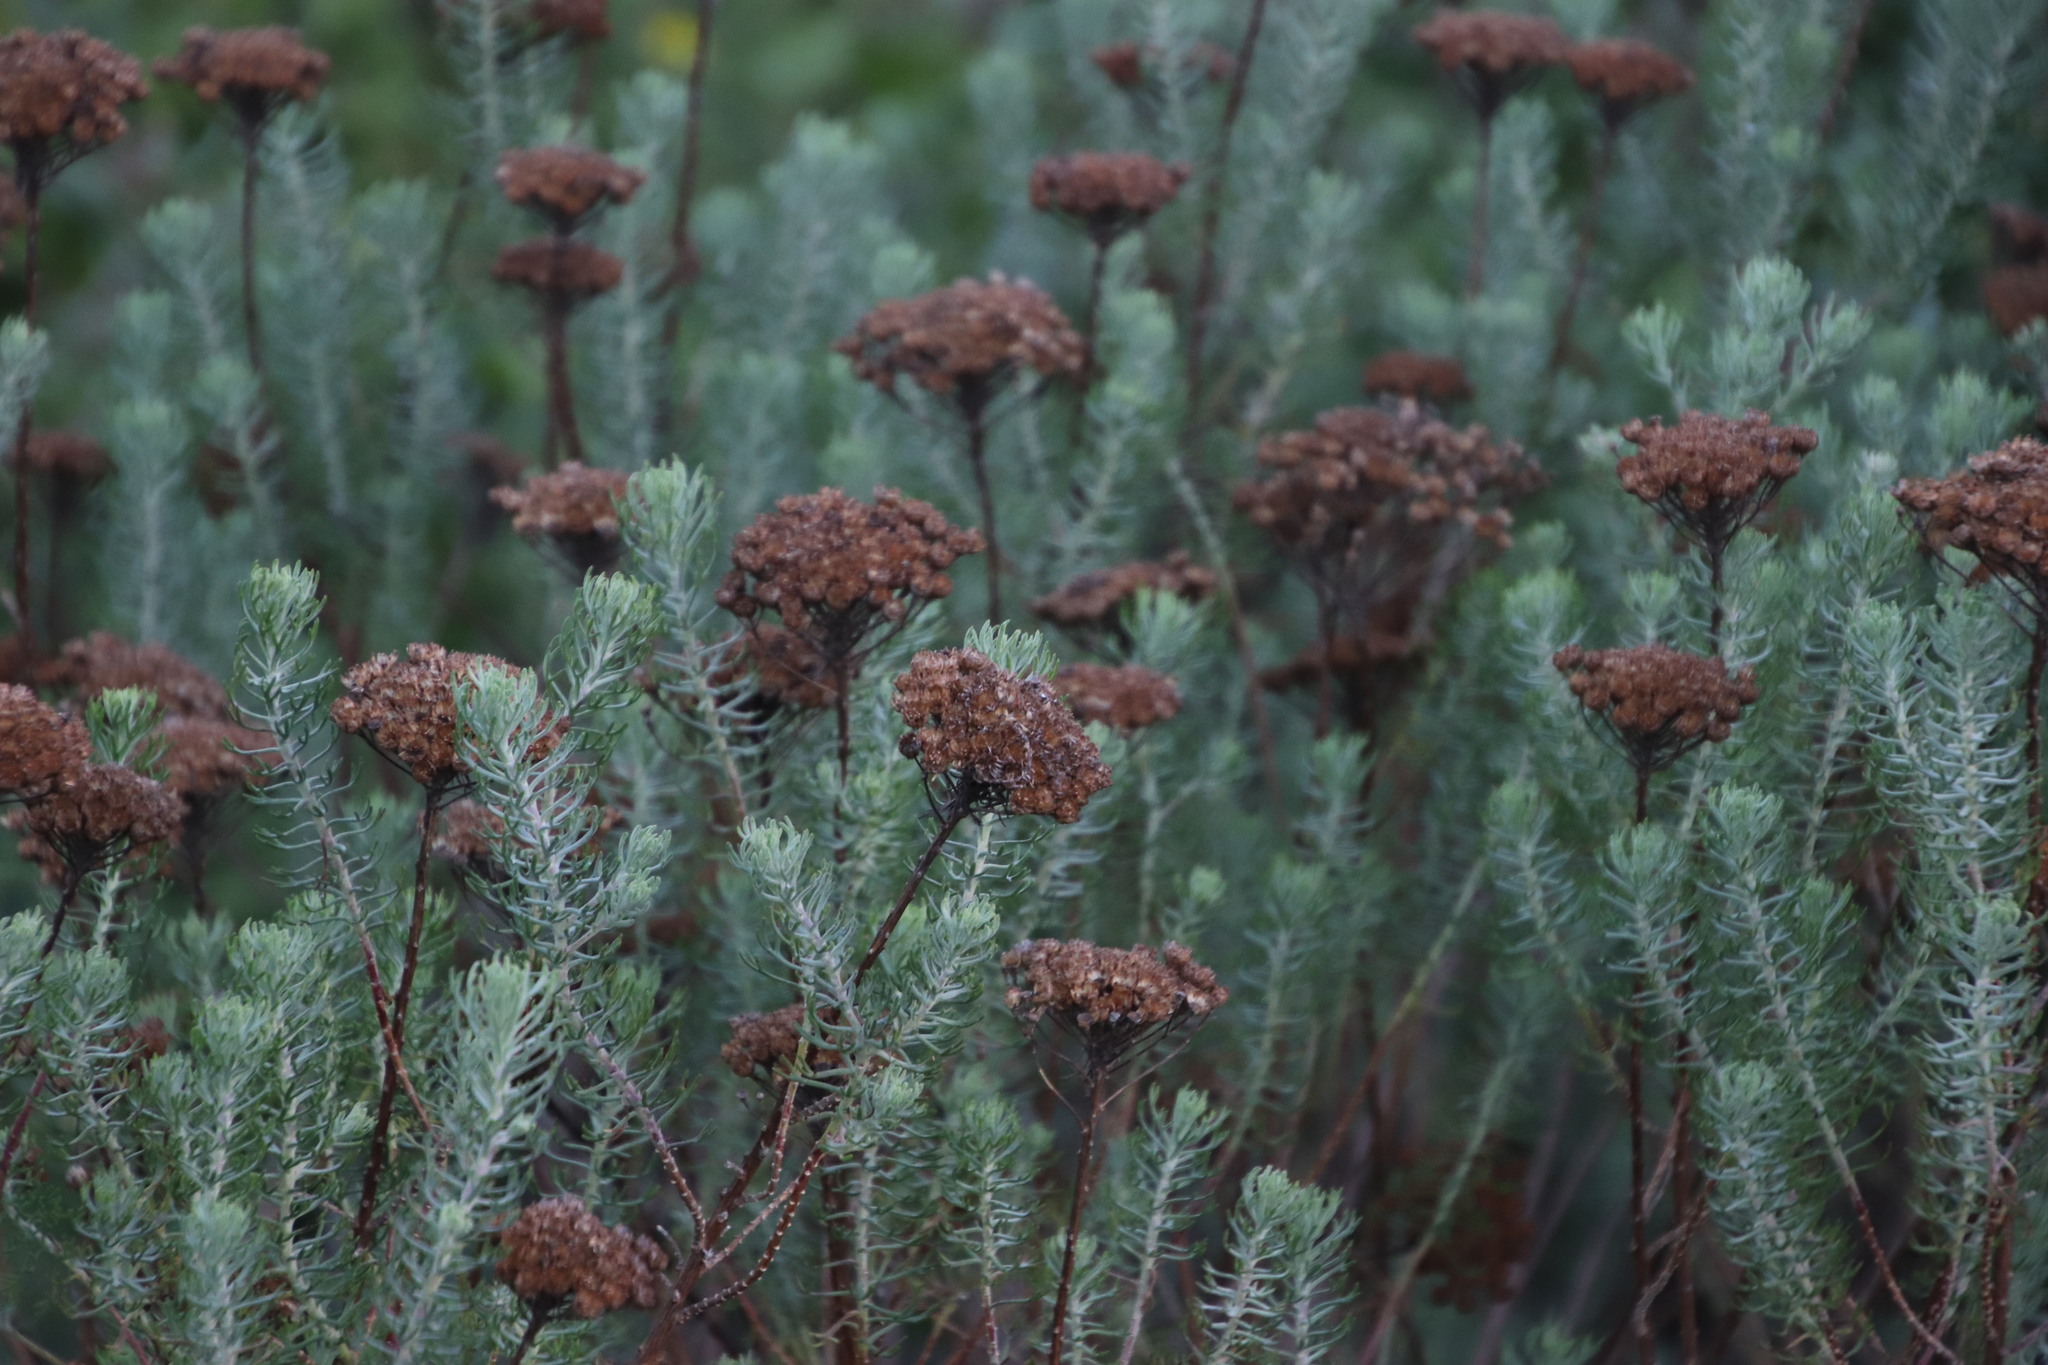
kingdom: Plantae
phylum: Tracheophyta
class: Magnoliopsida
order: Asterales
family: Asteraceae
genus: Athanasia
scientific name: Athanasia trifurcata
